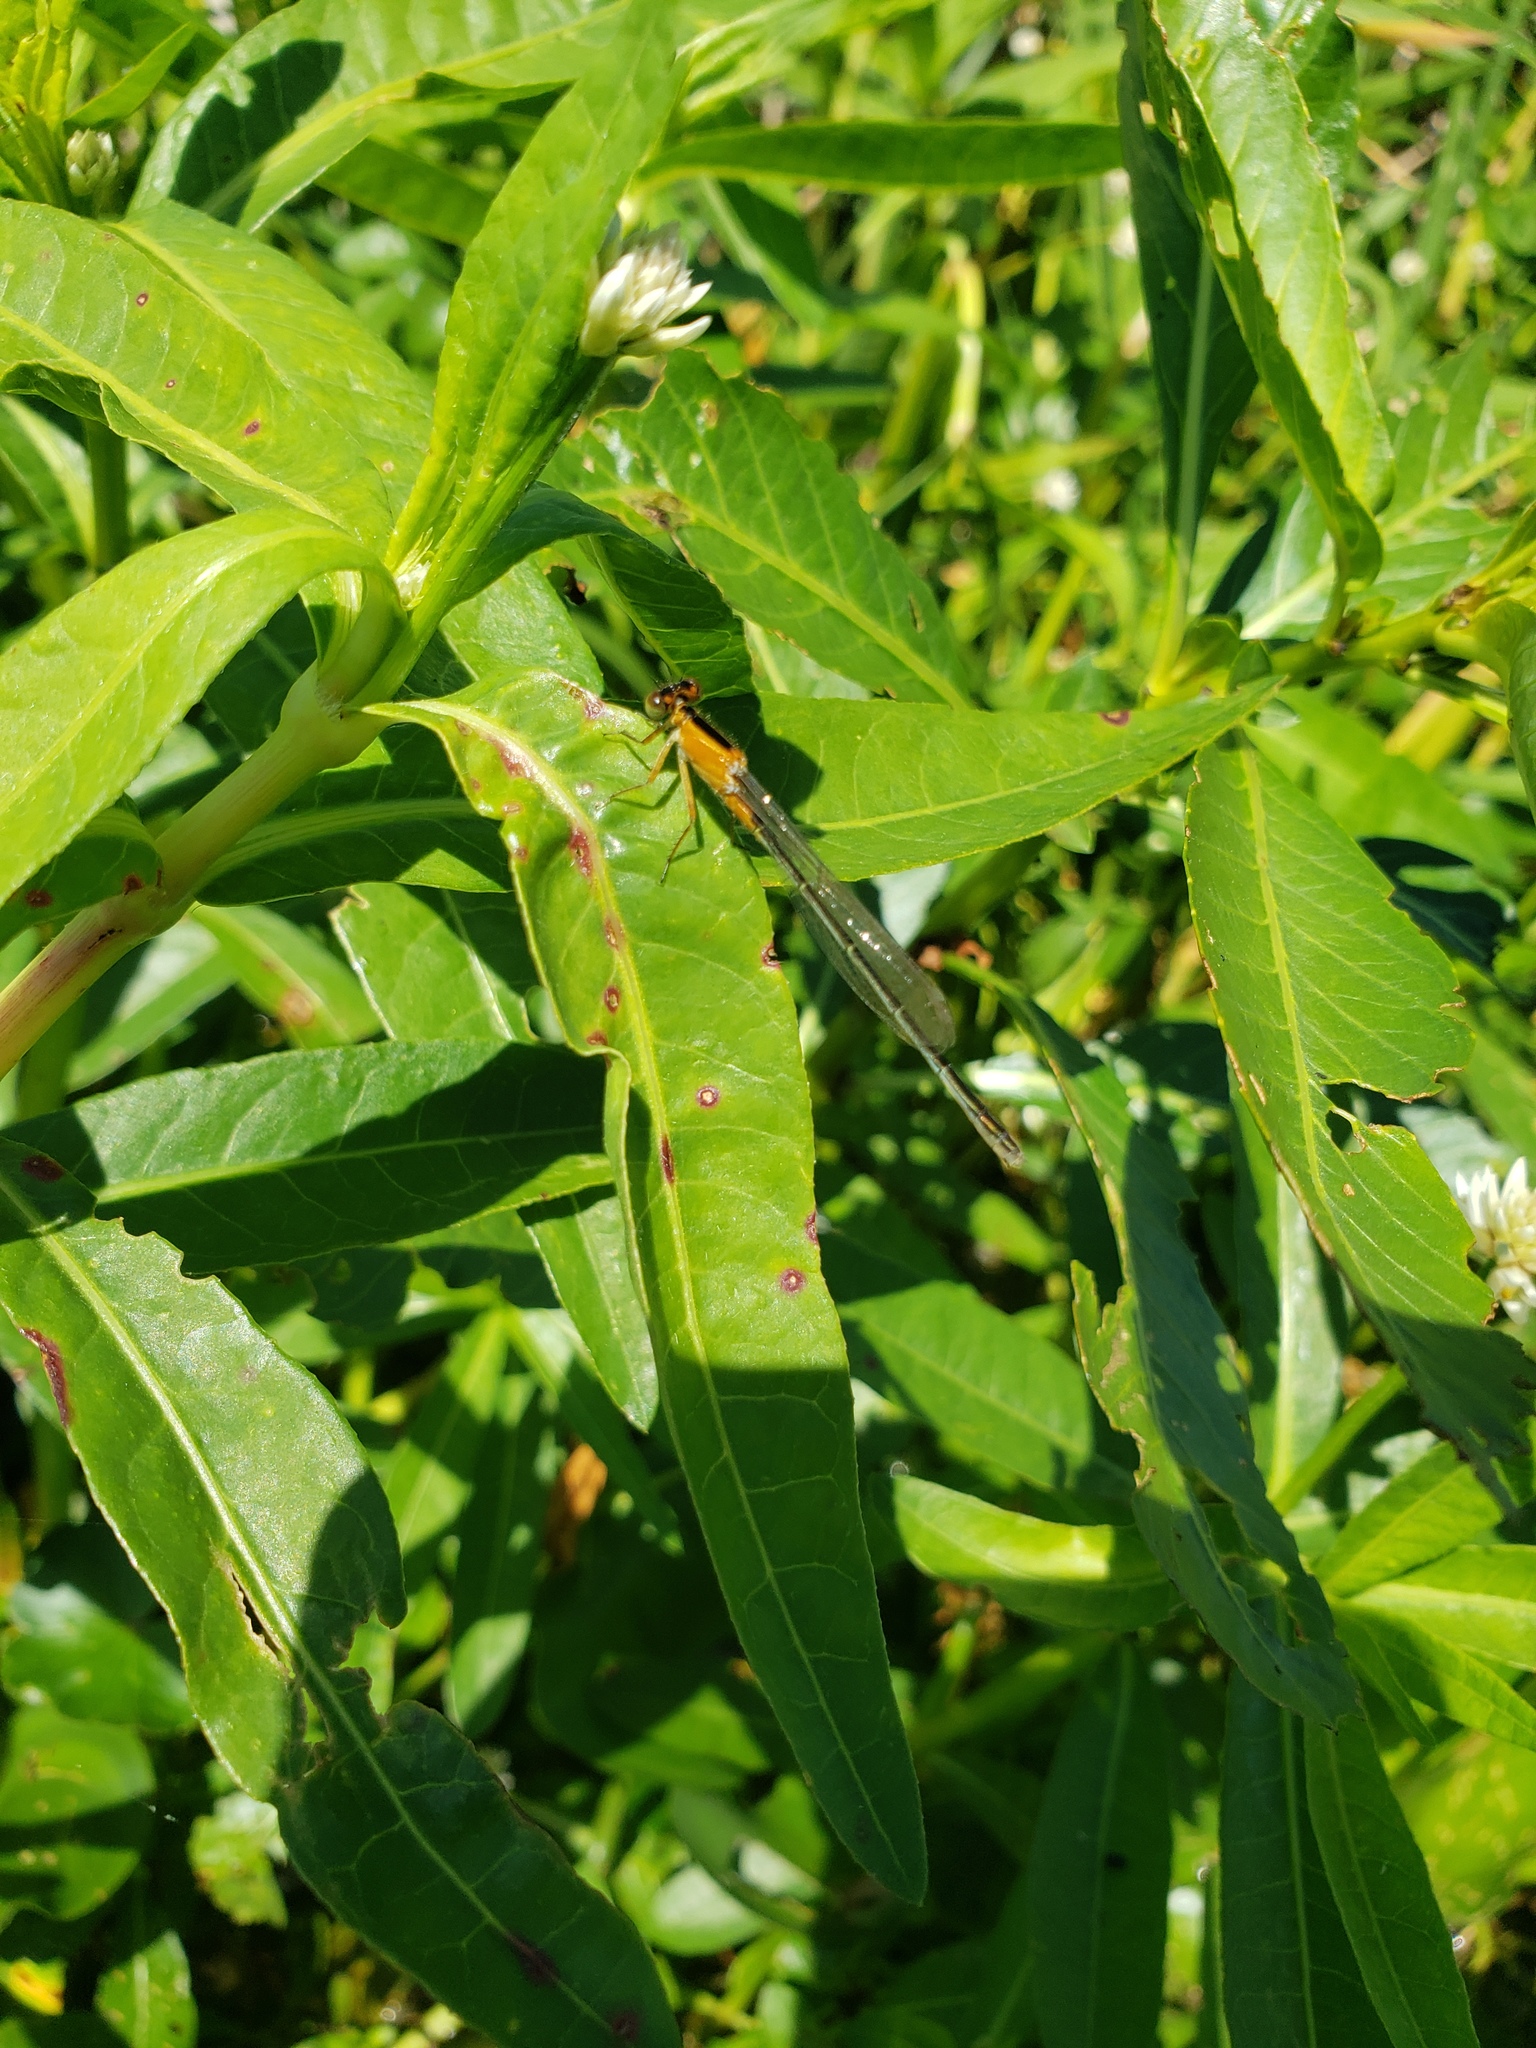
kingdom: Animalia
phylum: Arthropoda
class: Insecta
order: Odonata
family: Coenagrionidae
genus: Ischnura
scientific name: Ischnura ramburii
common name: Rambur's forktail
